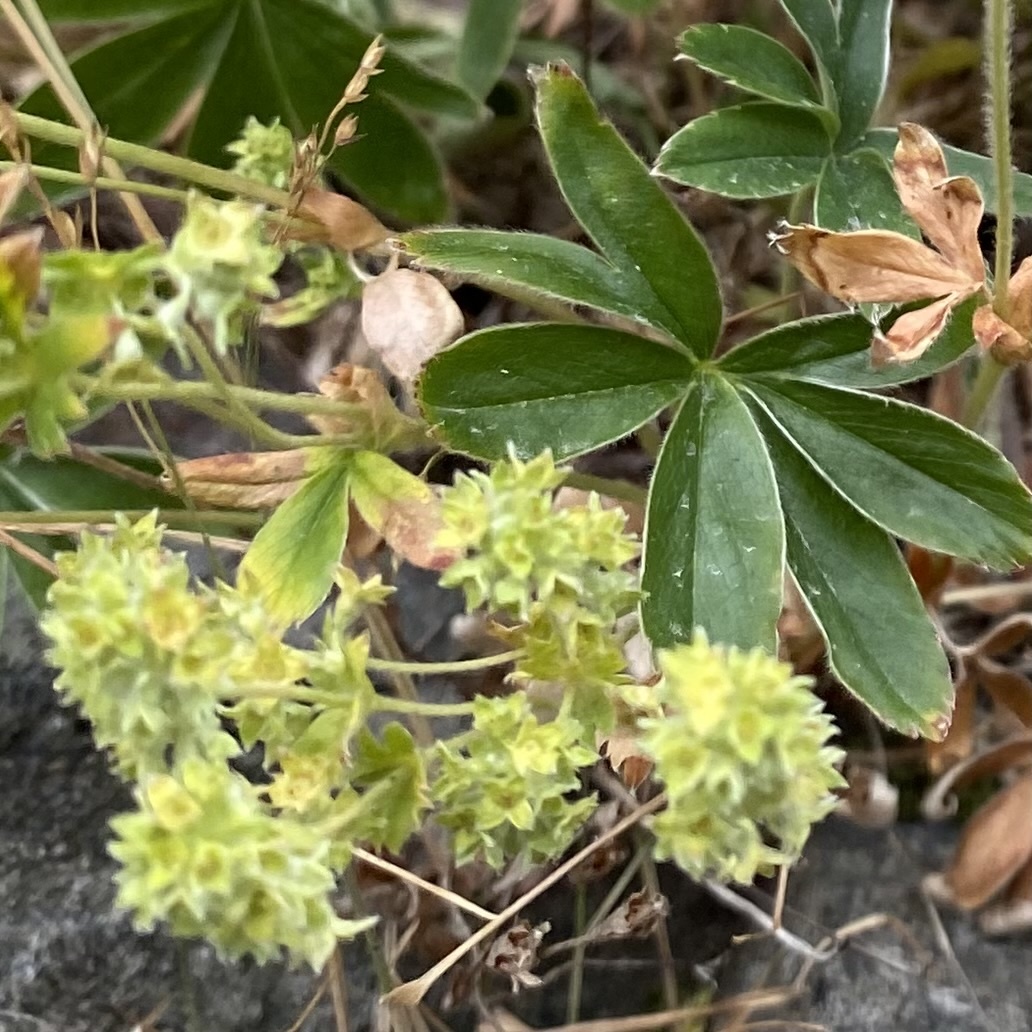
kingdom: Plantae
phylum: Tracheophyta
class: Magnoliopsida
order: Rosales
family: Rosaceae
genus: Alchemilla
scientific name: Alchemilla alpina
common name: Alpine lady's-mantle
